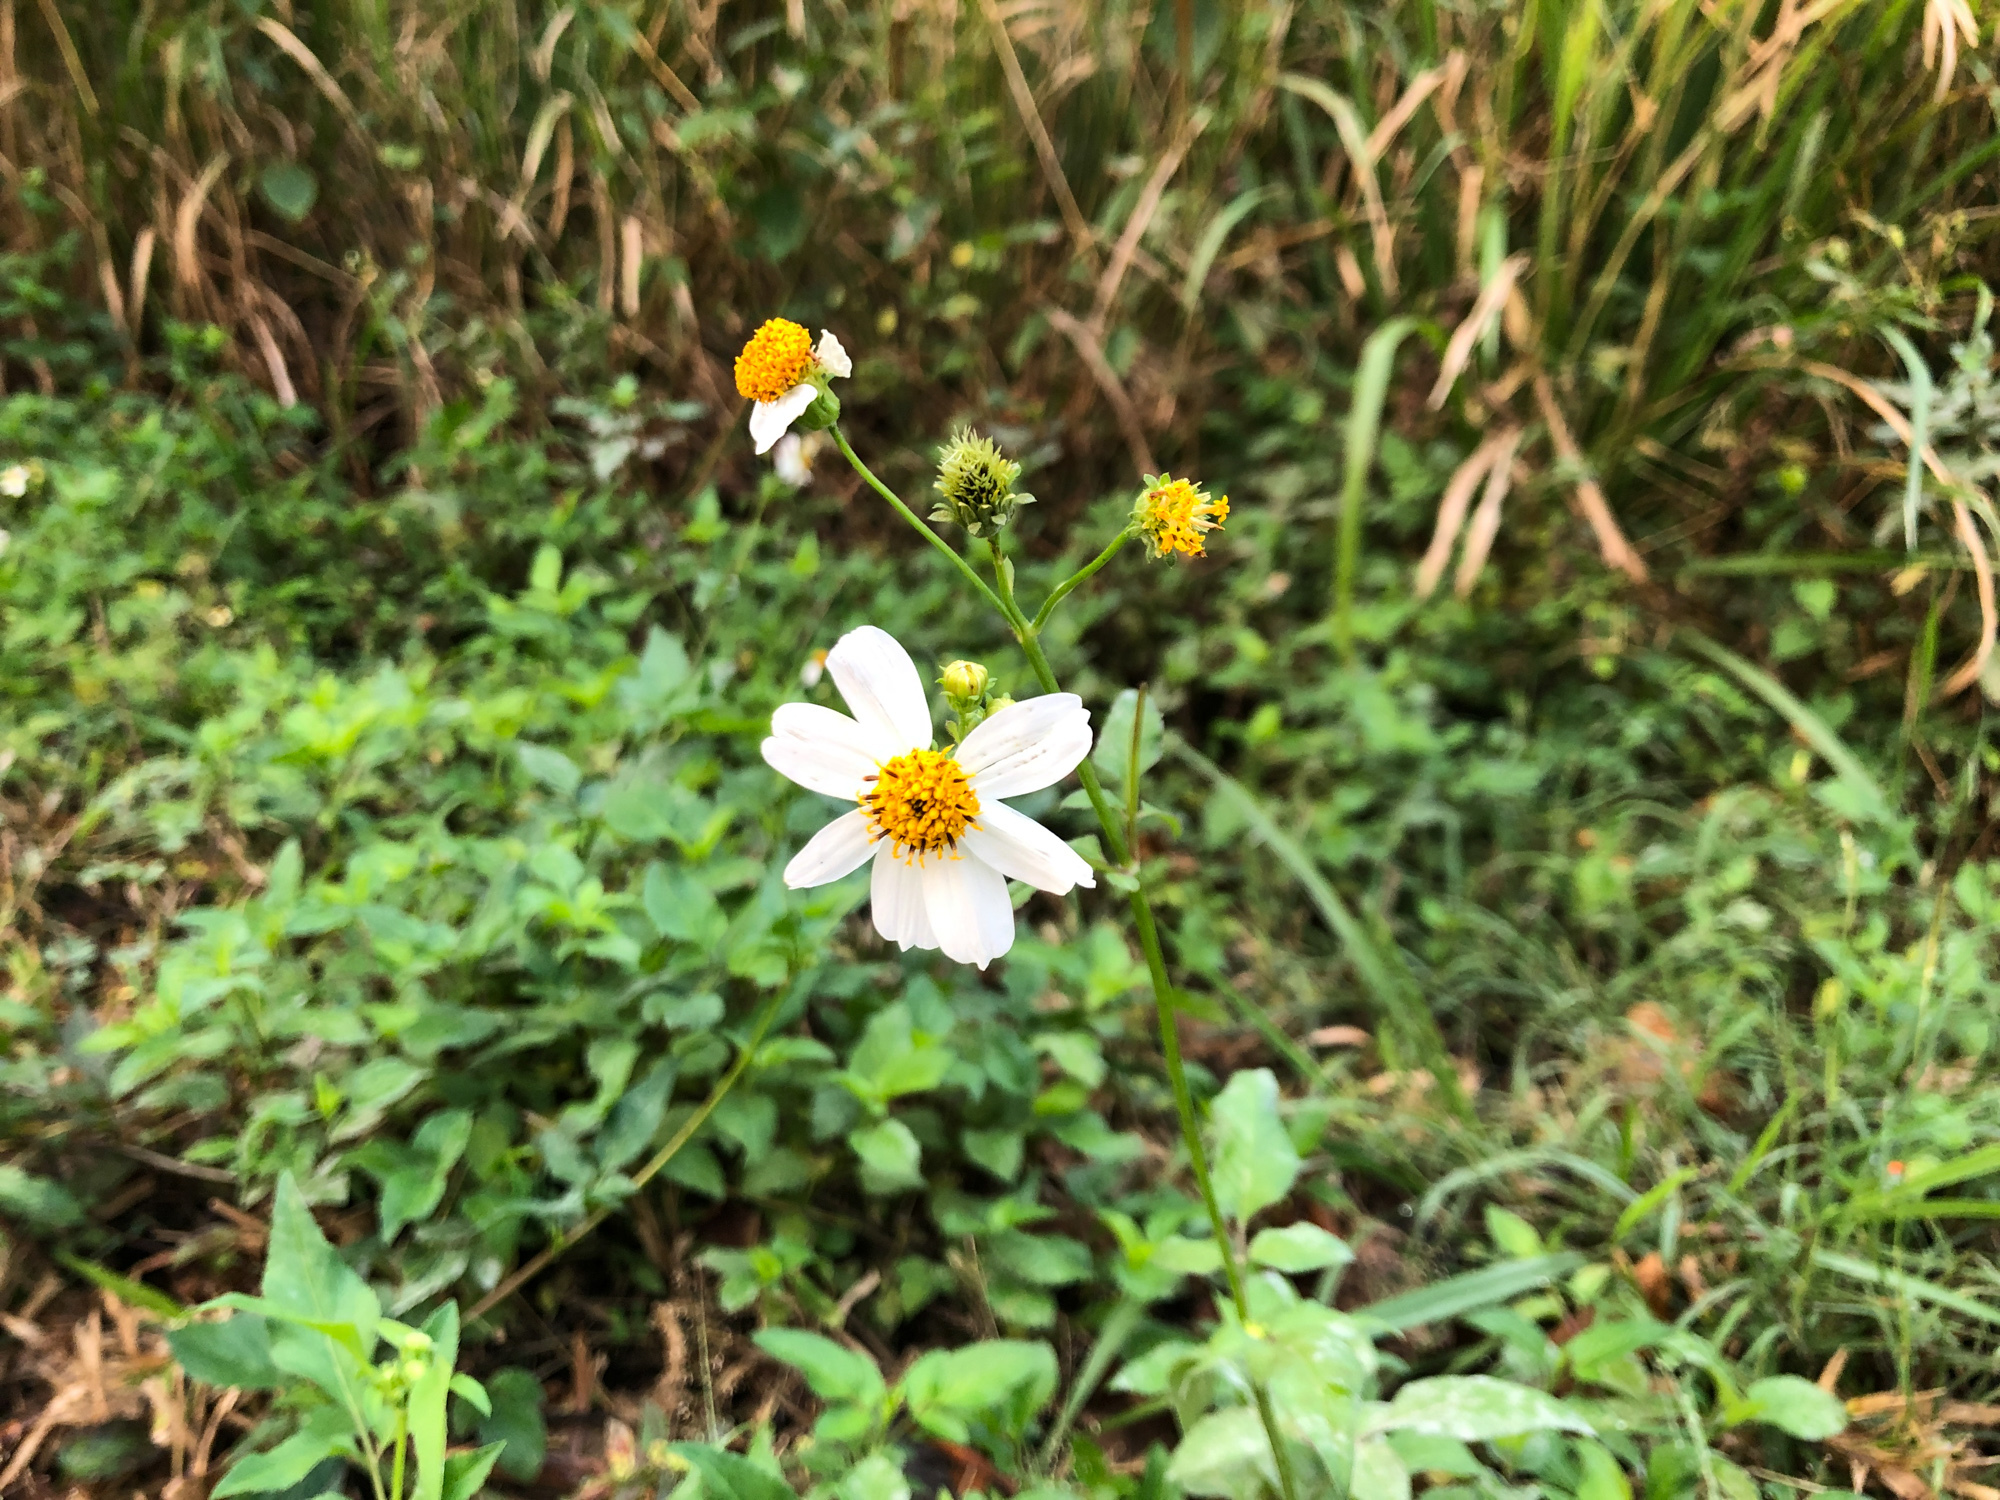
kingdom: Plantae
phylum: Tracheophyta
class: Magnoliopsida
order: Asterales
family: Asteraceae
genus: Bidens
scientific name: Bidens alba
